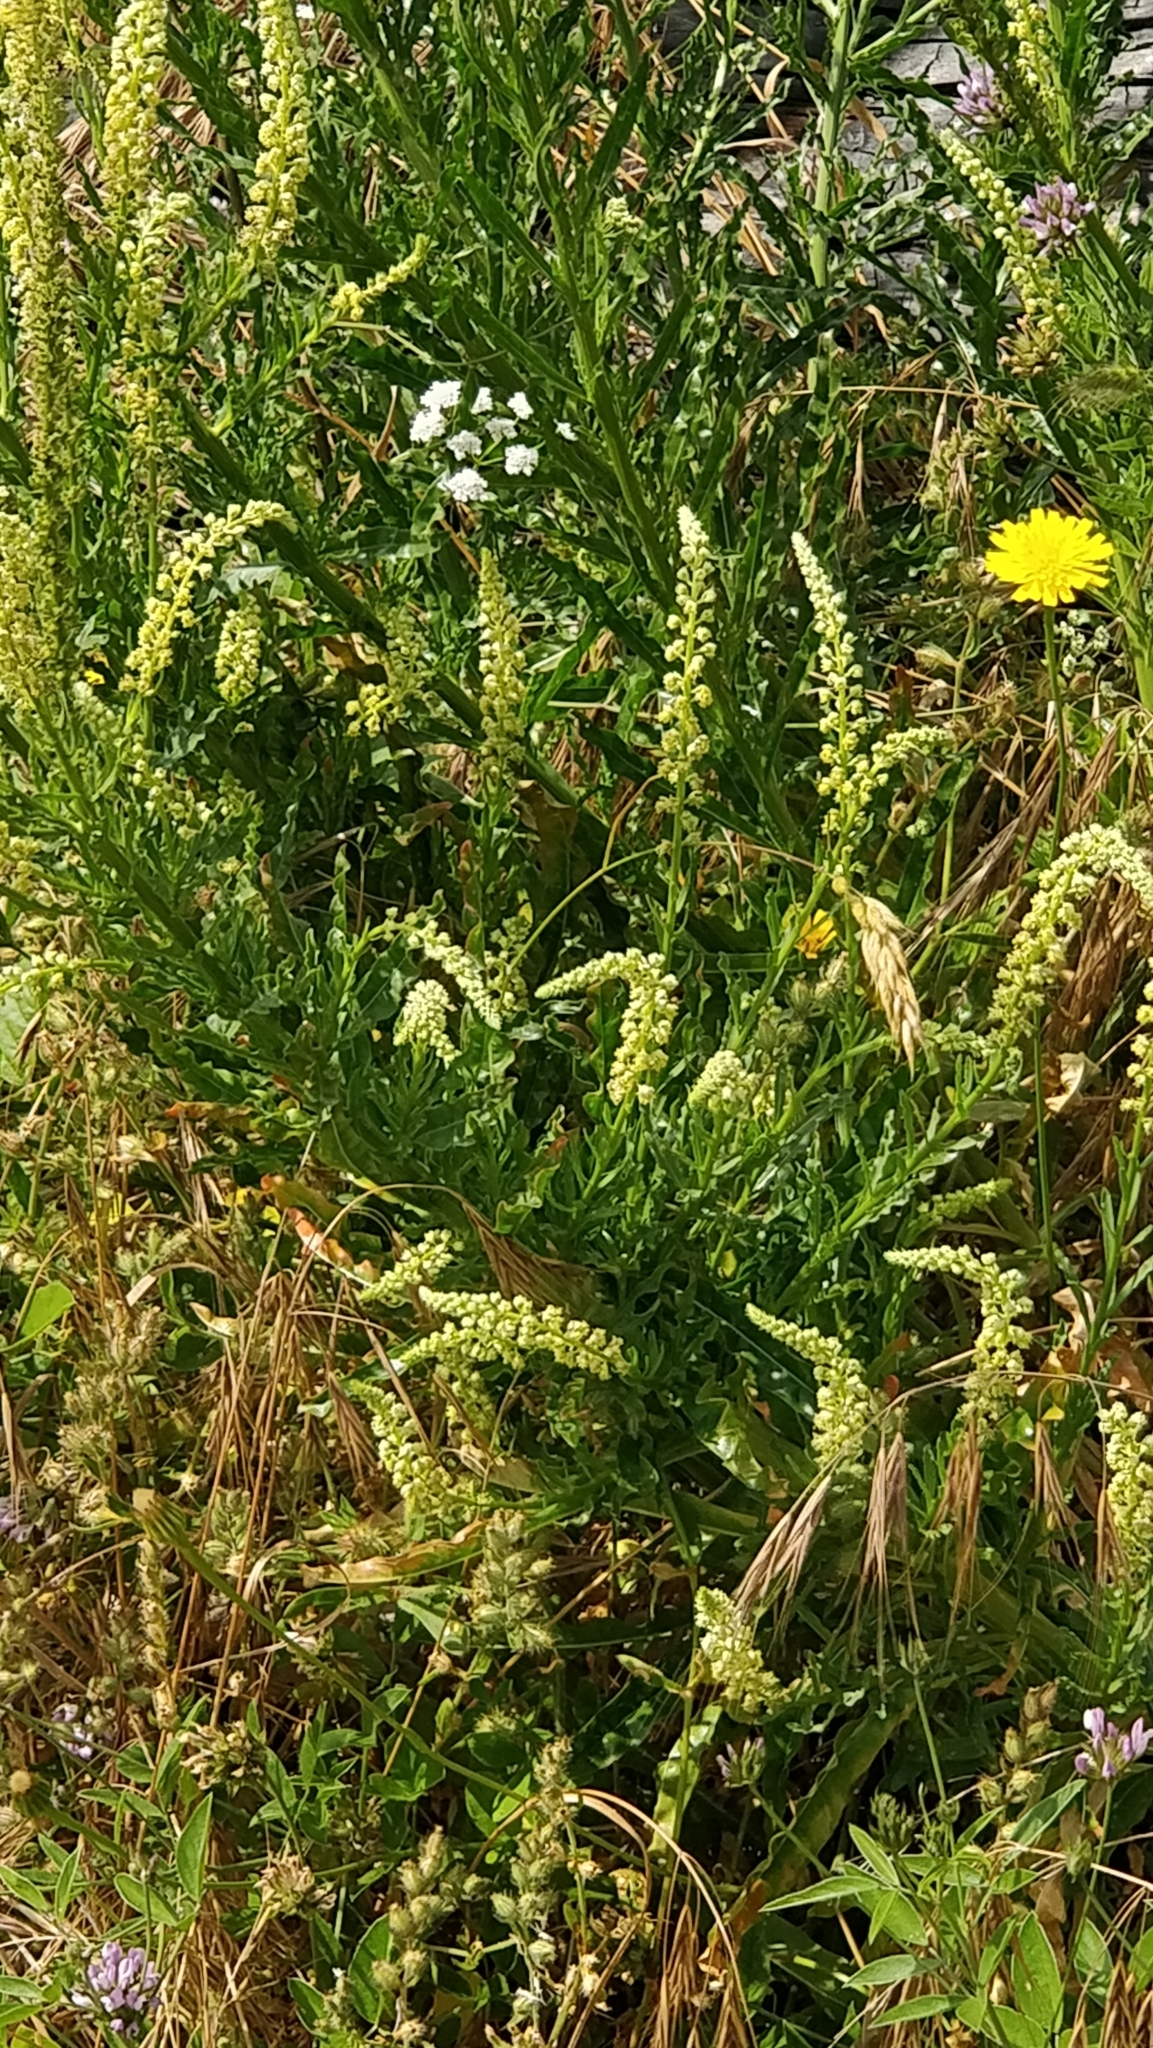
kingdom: Plantae
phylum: Tracheophyta
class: Magnoliopsida
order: Brassicales
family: Resedaceae
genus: Reseda
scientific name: Reseda luteola
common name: Weld
